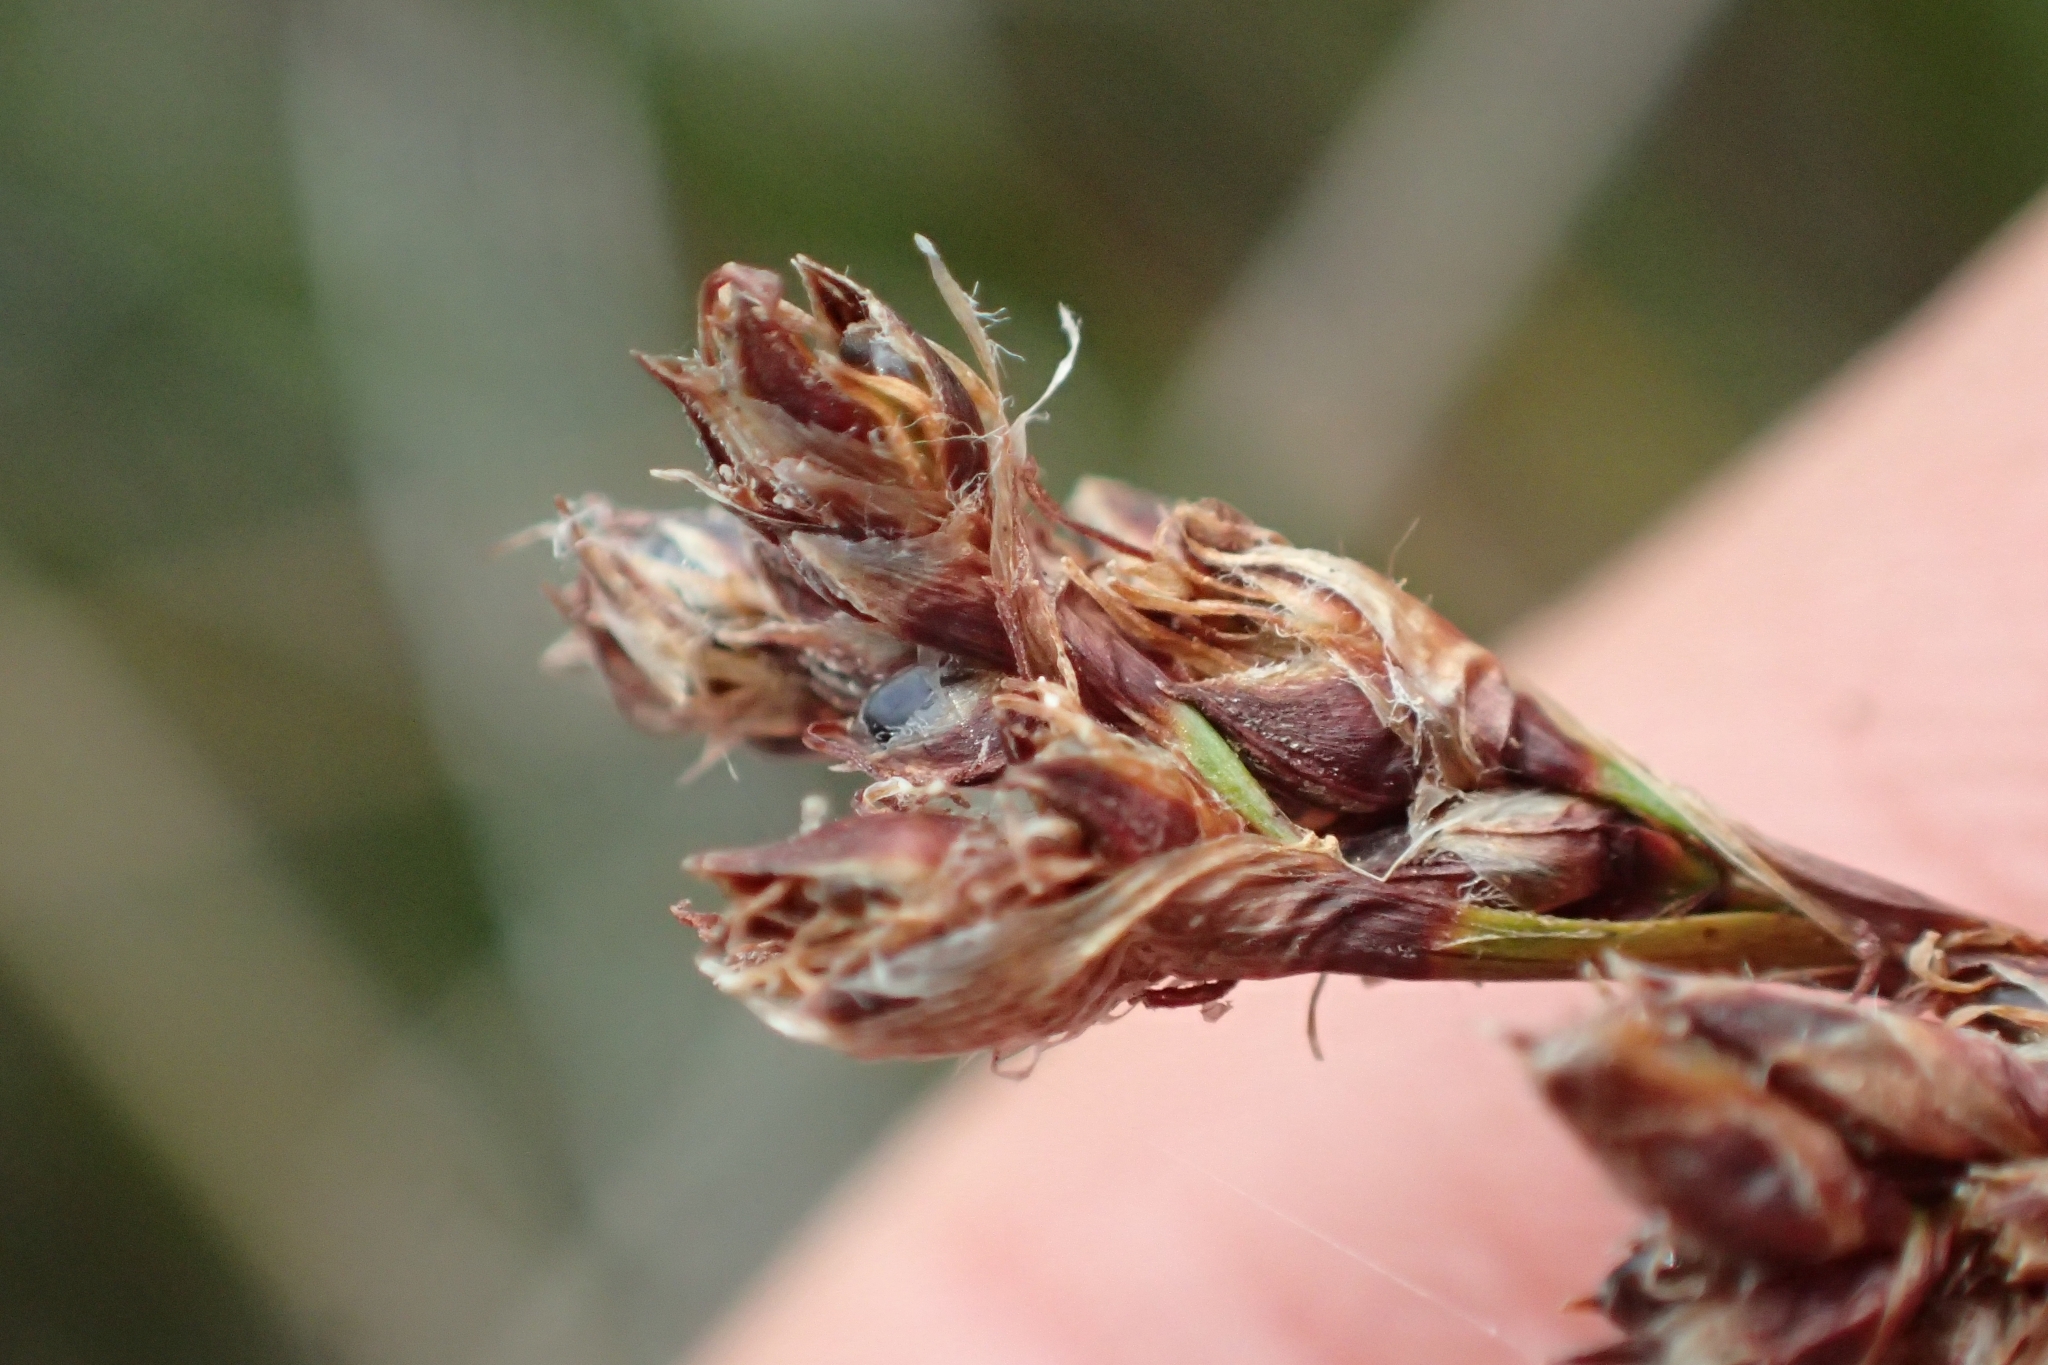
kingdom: Plantae
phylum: Tracheophyta
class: Liliopsida
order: Poales
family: Cyperaceae
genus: Machaerina
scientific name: Machaerina rubiginosa
